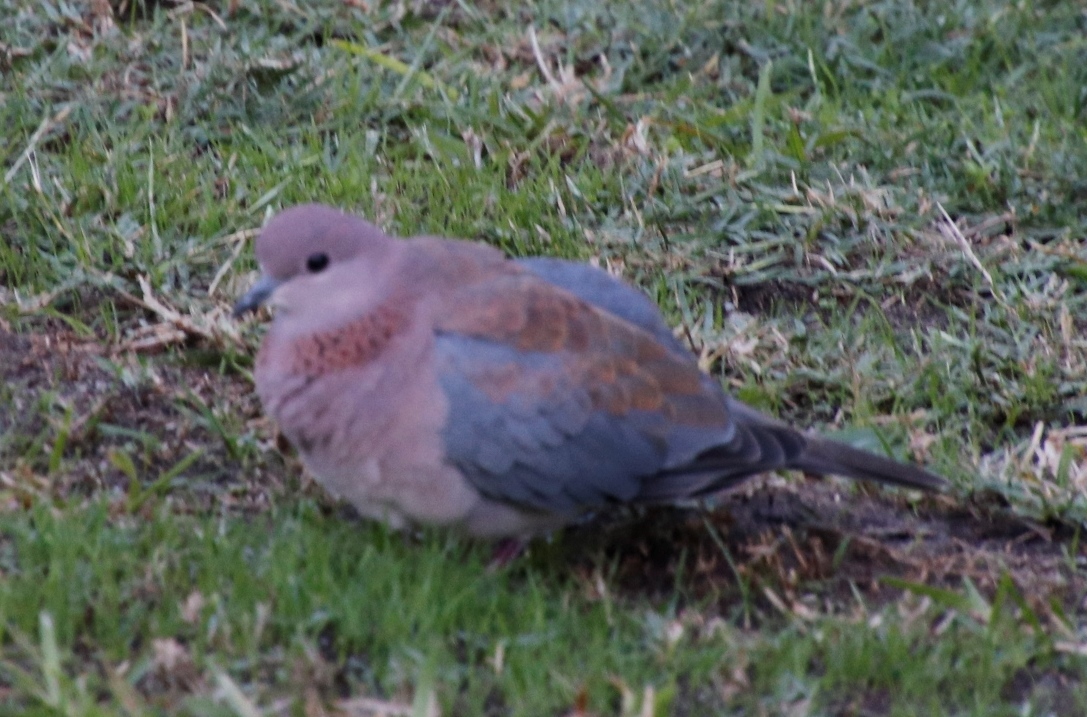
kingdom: Animalia
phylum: Chordata
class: Aves
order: Columbiformes
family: Columbidae
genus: Spilopelia
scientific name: Spilopelia senegalensis
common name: Laughing dove
